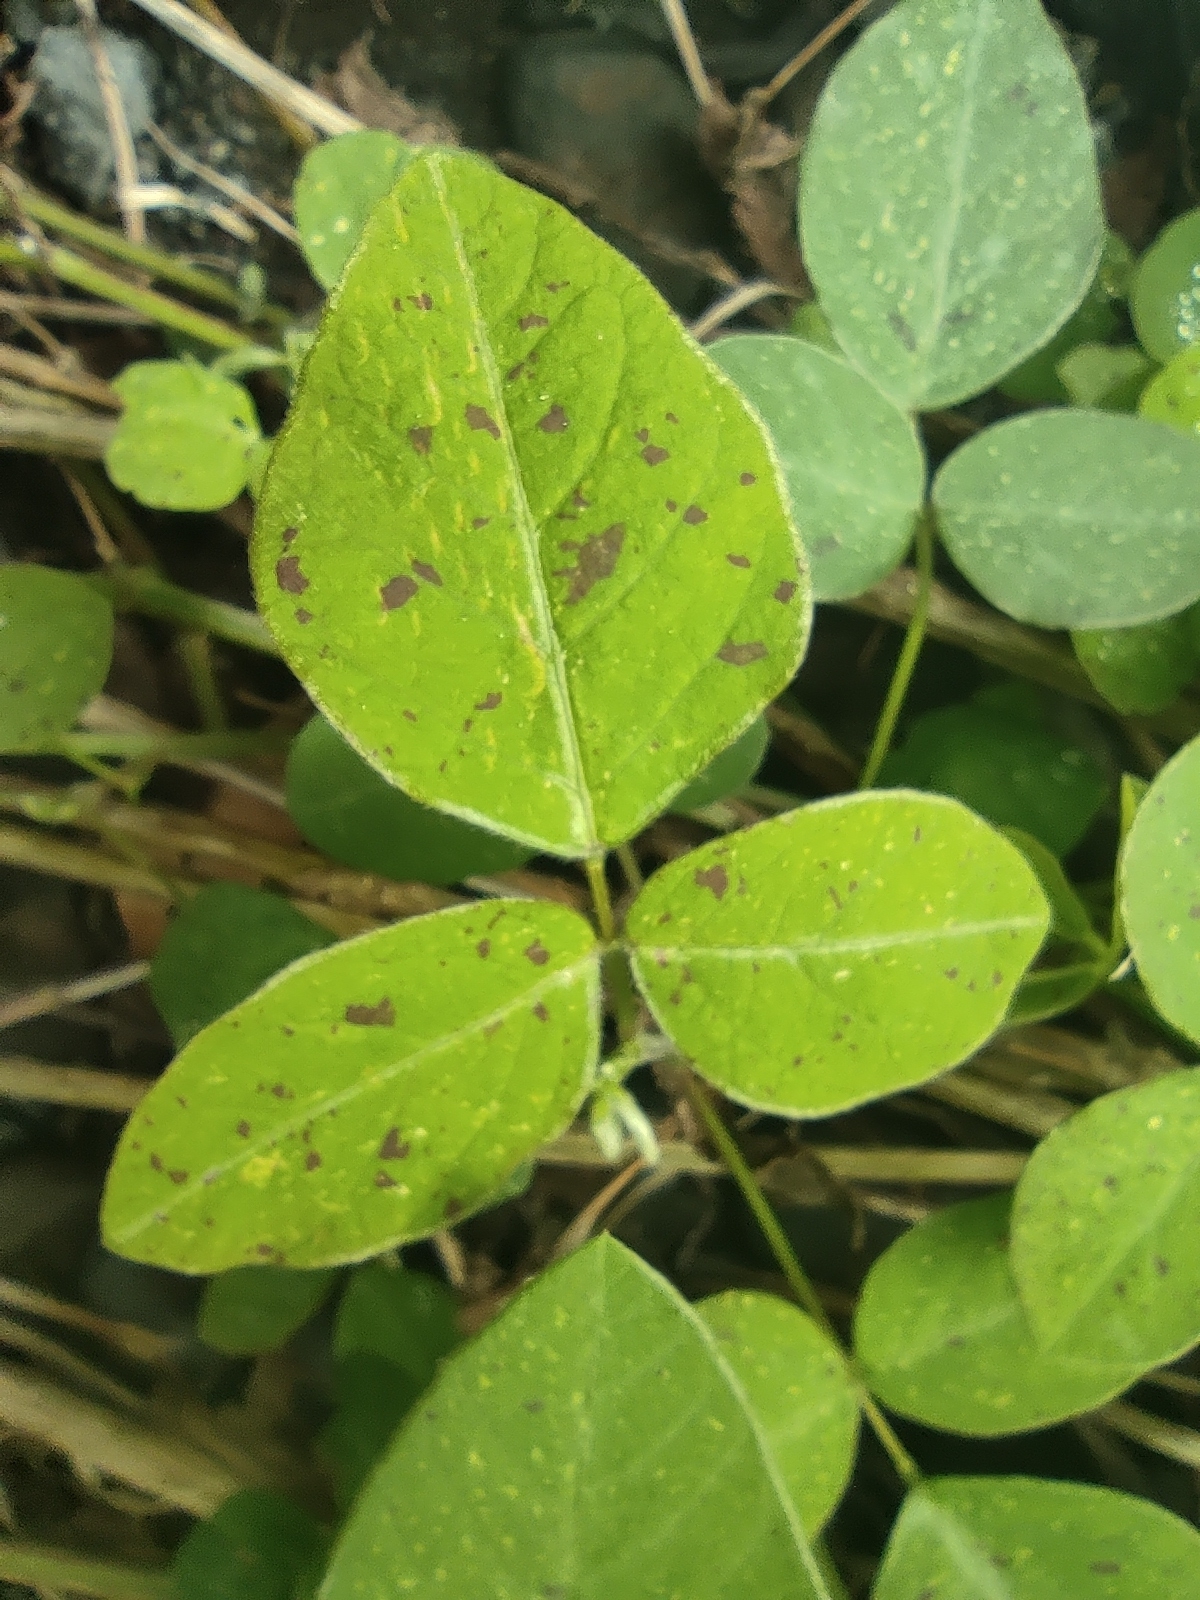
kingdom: Plantae
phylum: Tracheophyta
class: Magnoliopsida
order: Fabales
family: Fabaceae
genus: Desmodium
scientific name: Desmodium intortum
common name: Greenleaf ticktrefoil
